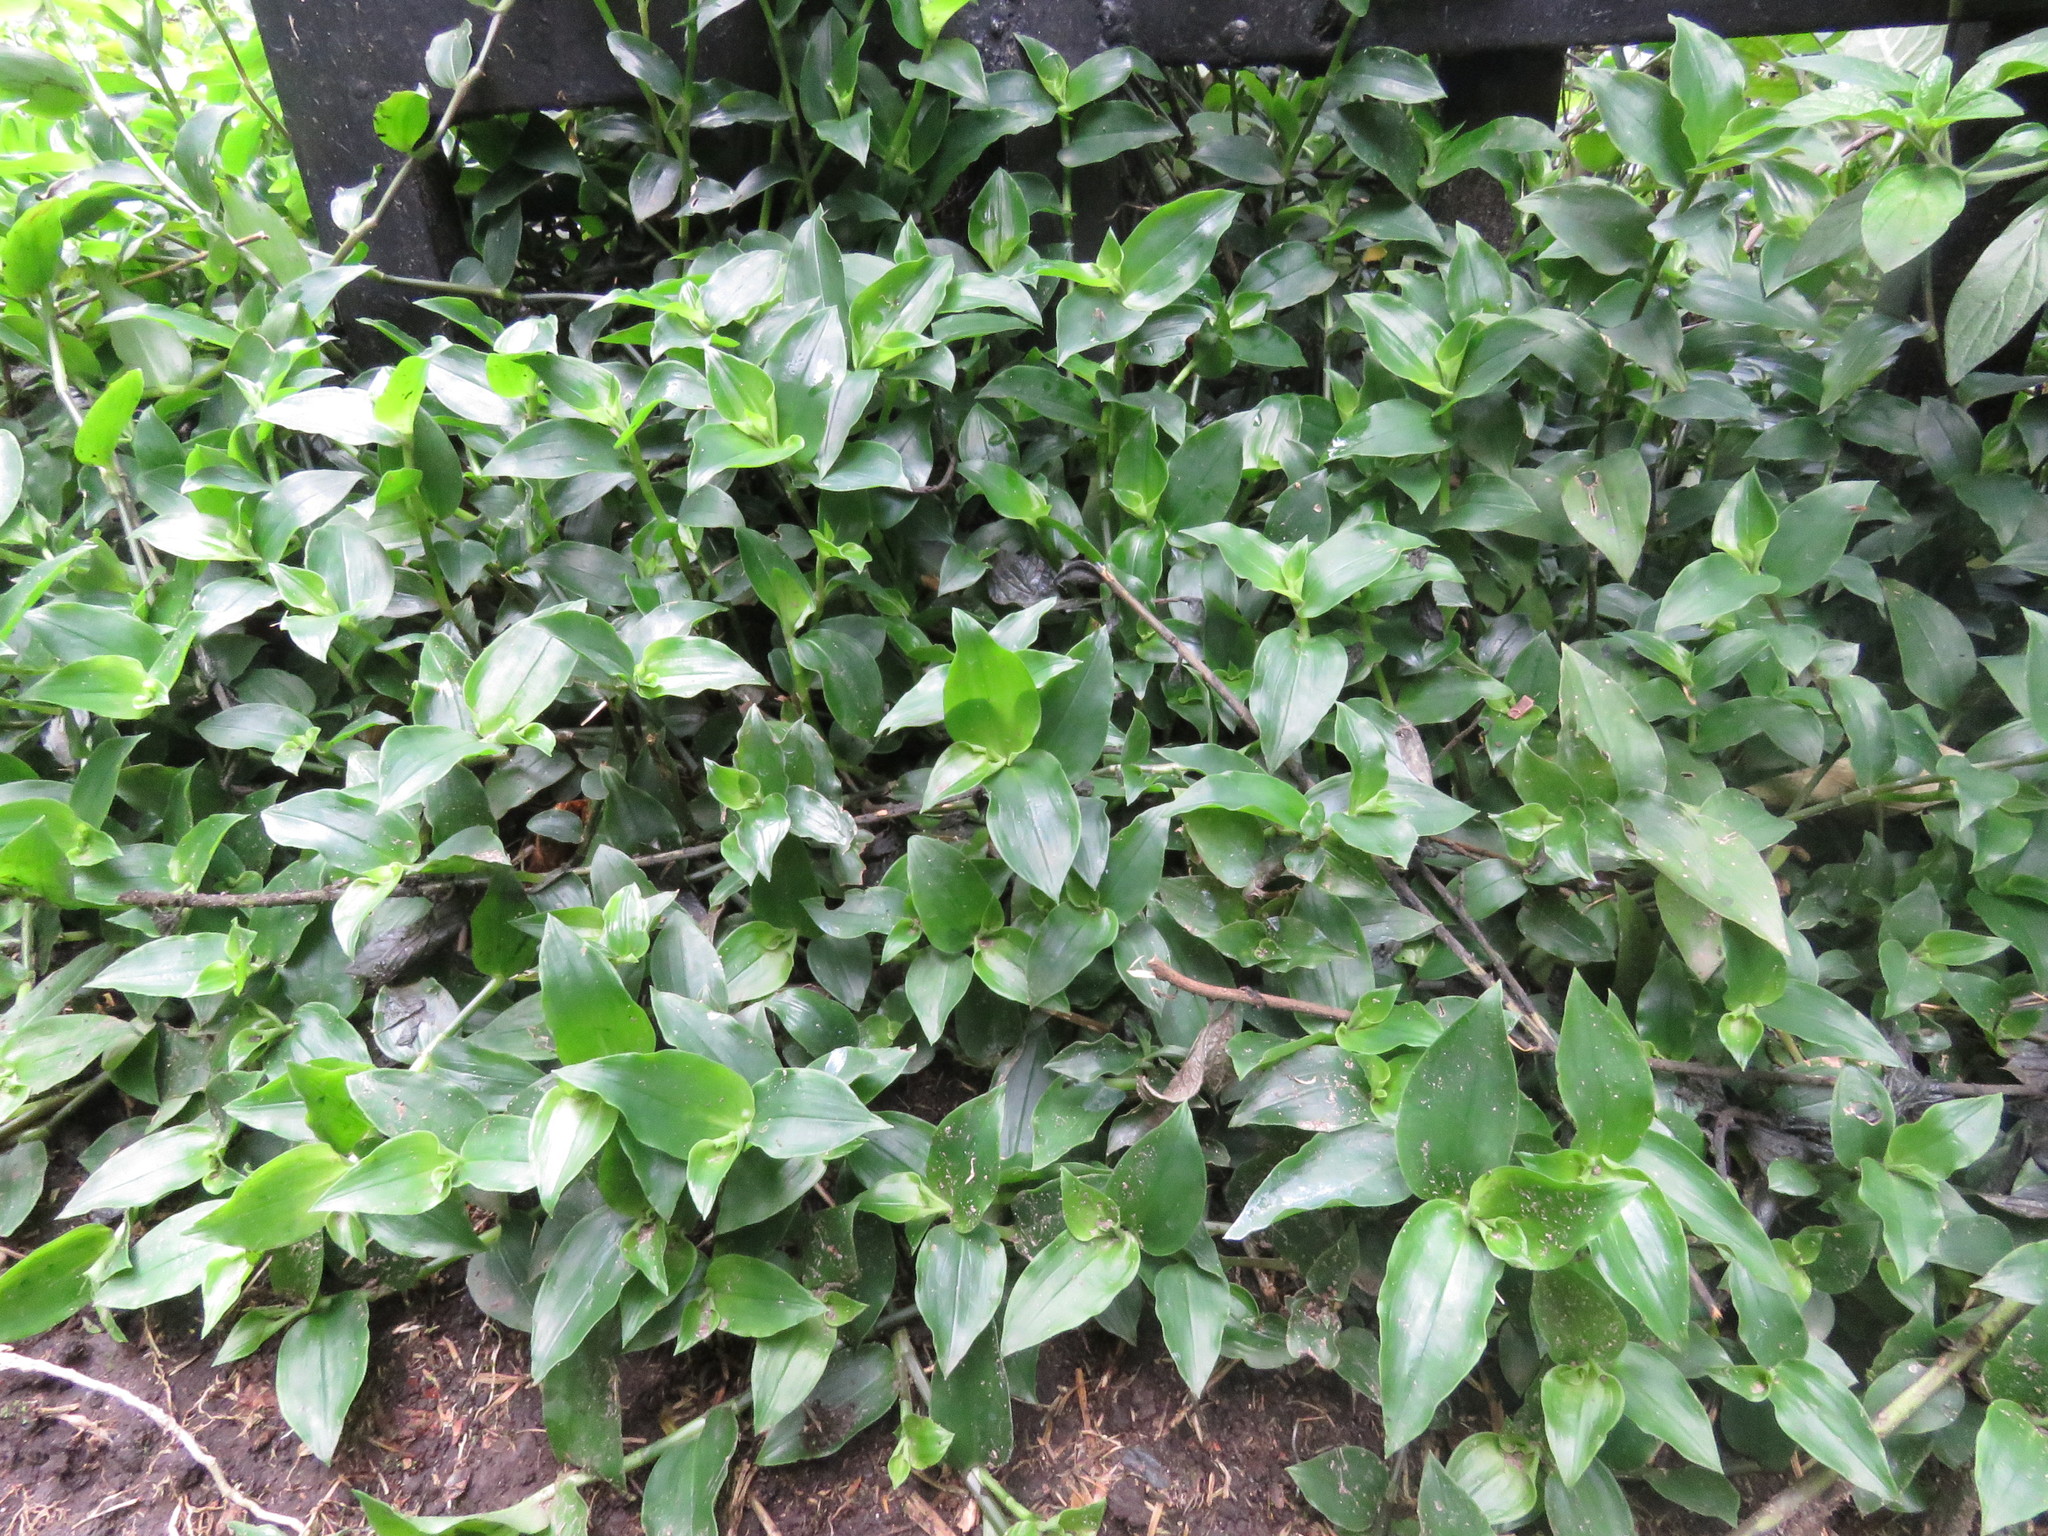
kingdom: Plantae
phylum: Tracheophyta
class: Liliopsida
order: Commelinales
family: Commelinaceae
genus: Tradescantia
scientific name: Tradescantia fluminensis
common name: Wandering-jew
